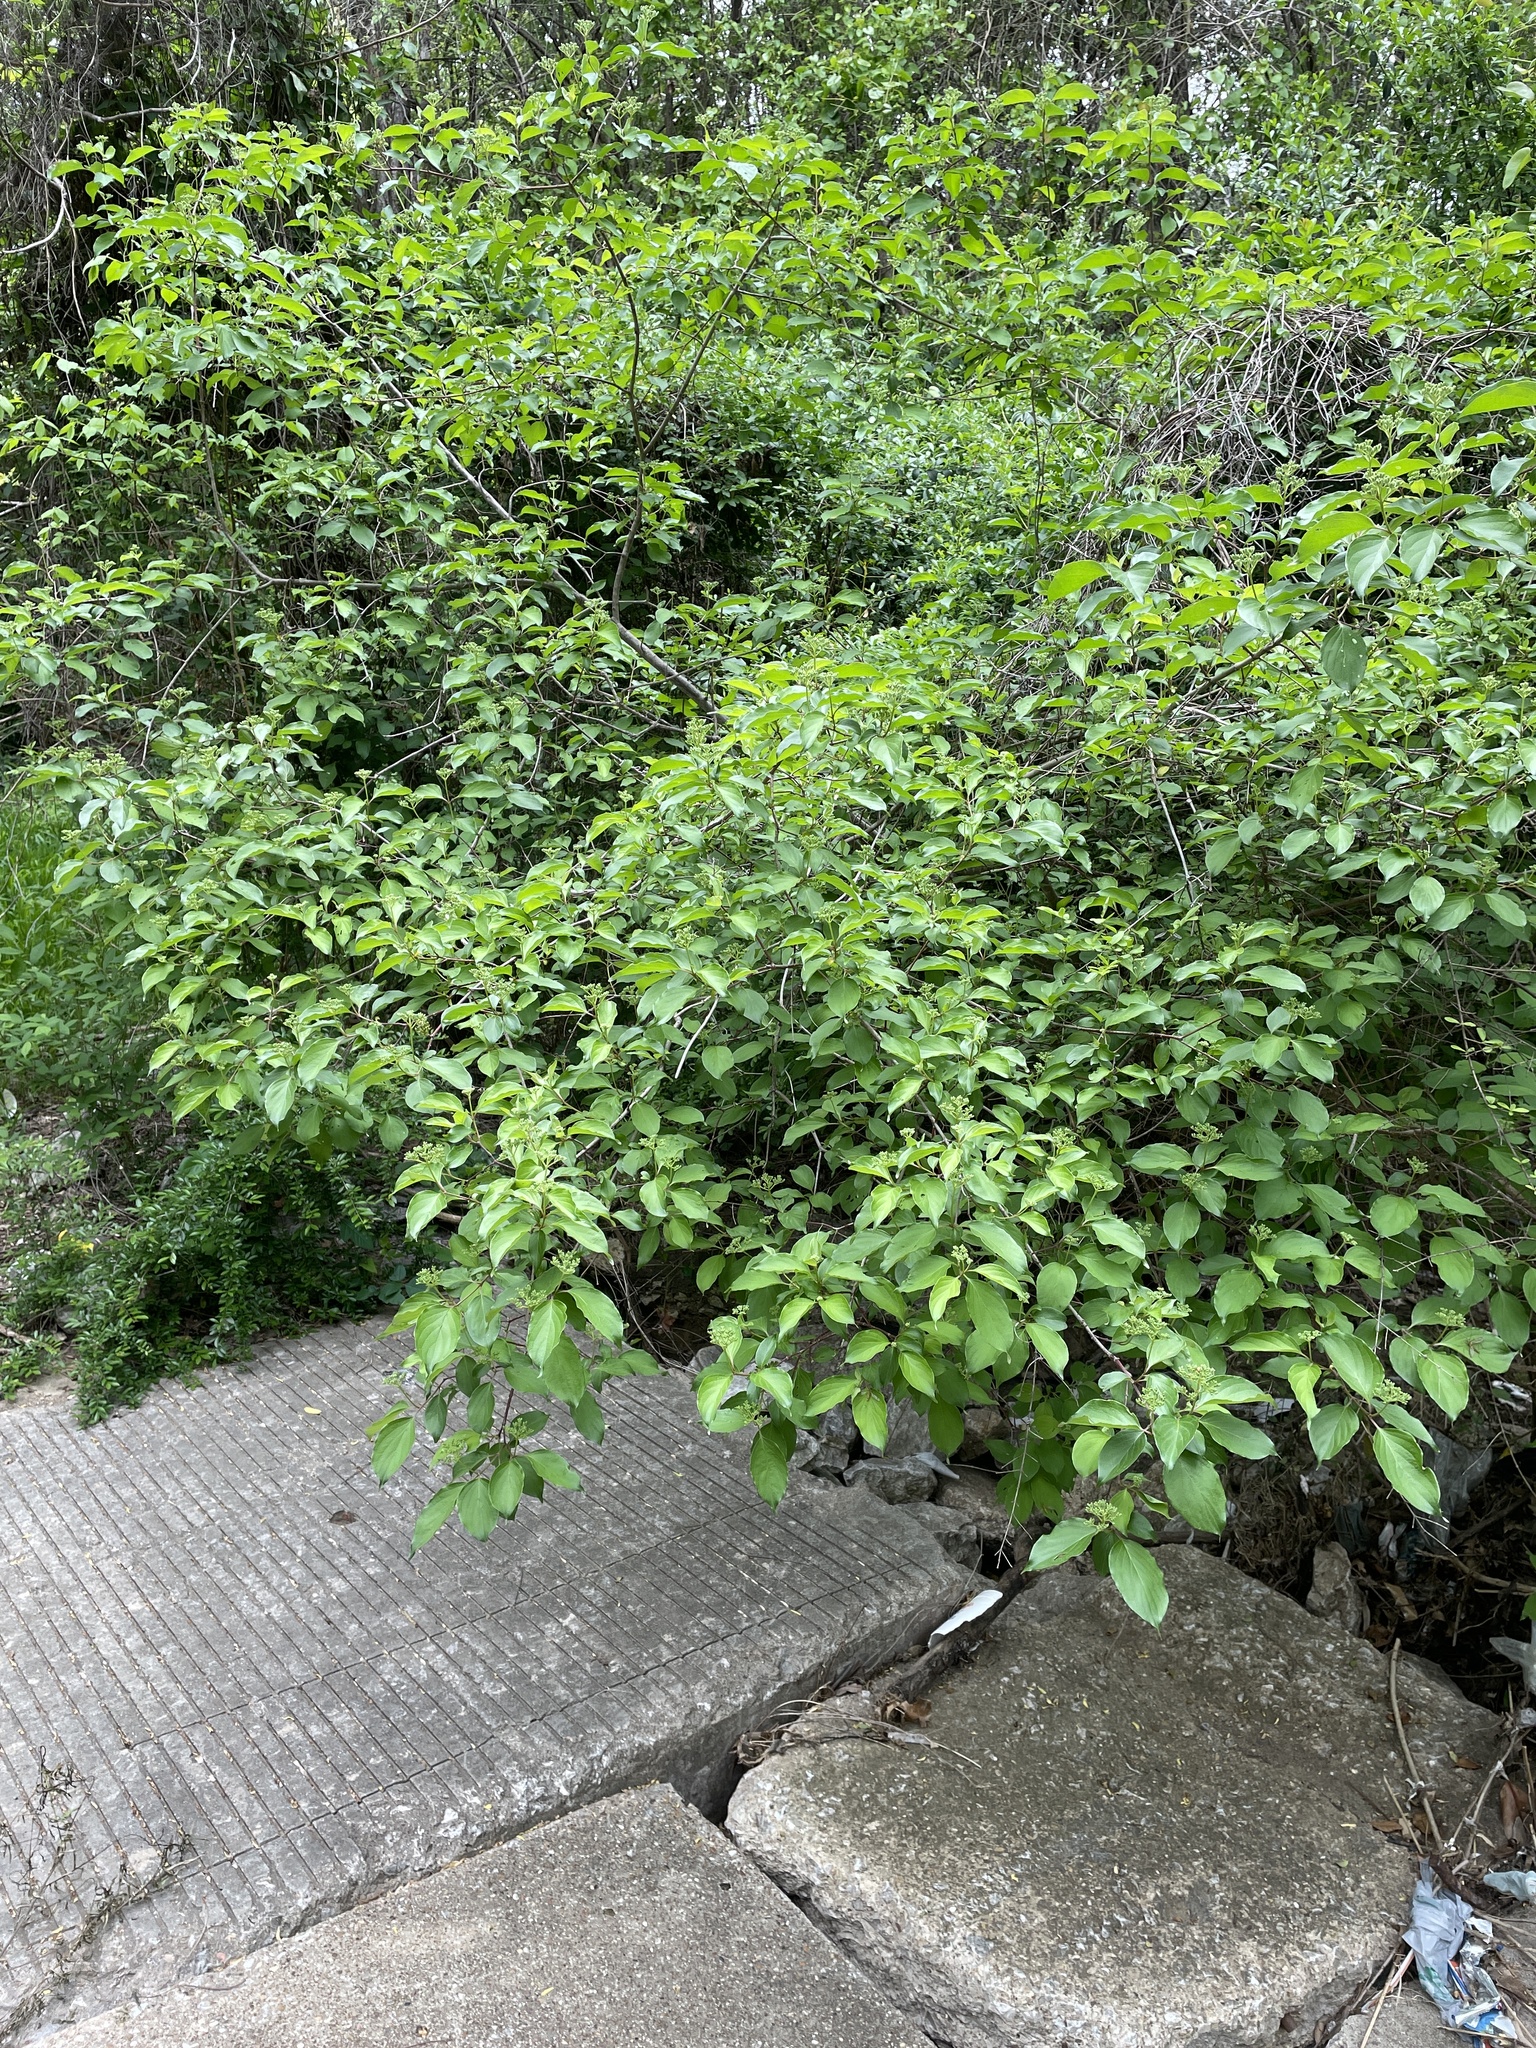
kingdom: Plantae
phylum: Tracheophyta
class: Magnoliopsida
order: Cornales
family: Cornaceae
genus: Cornus
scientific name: Cornus drummondii
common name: Rough-leaf dogwood
